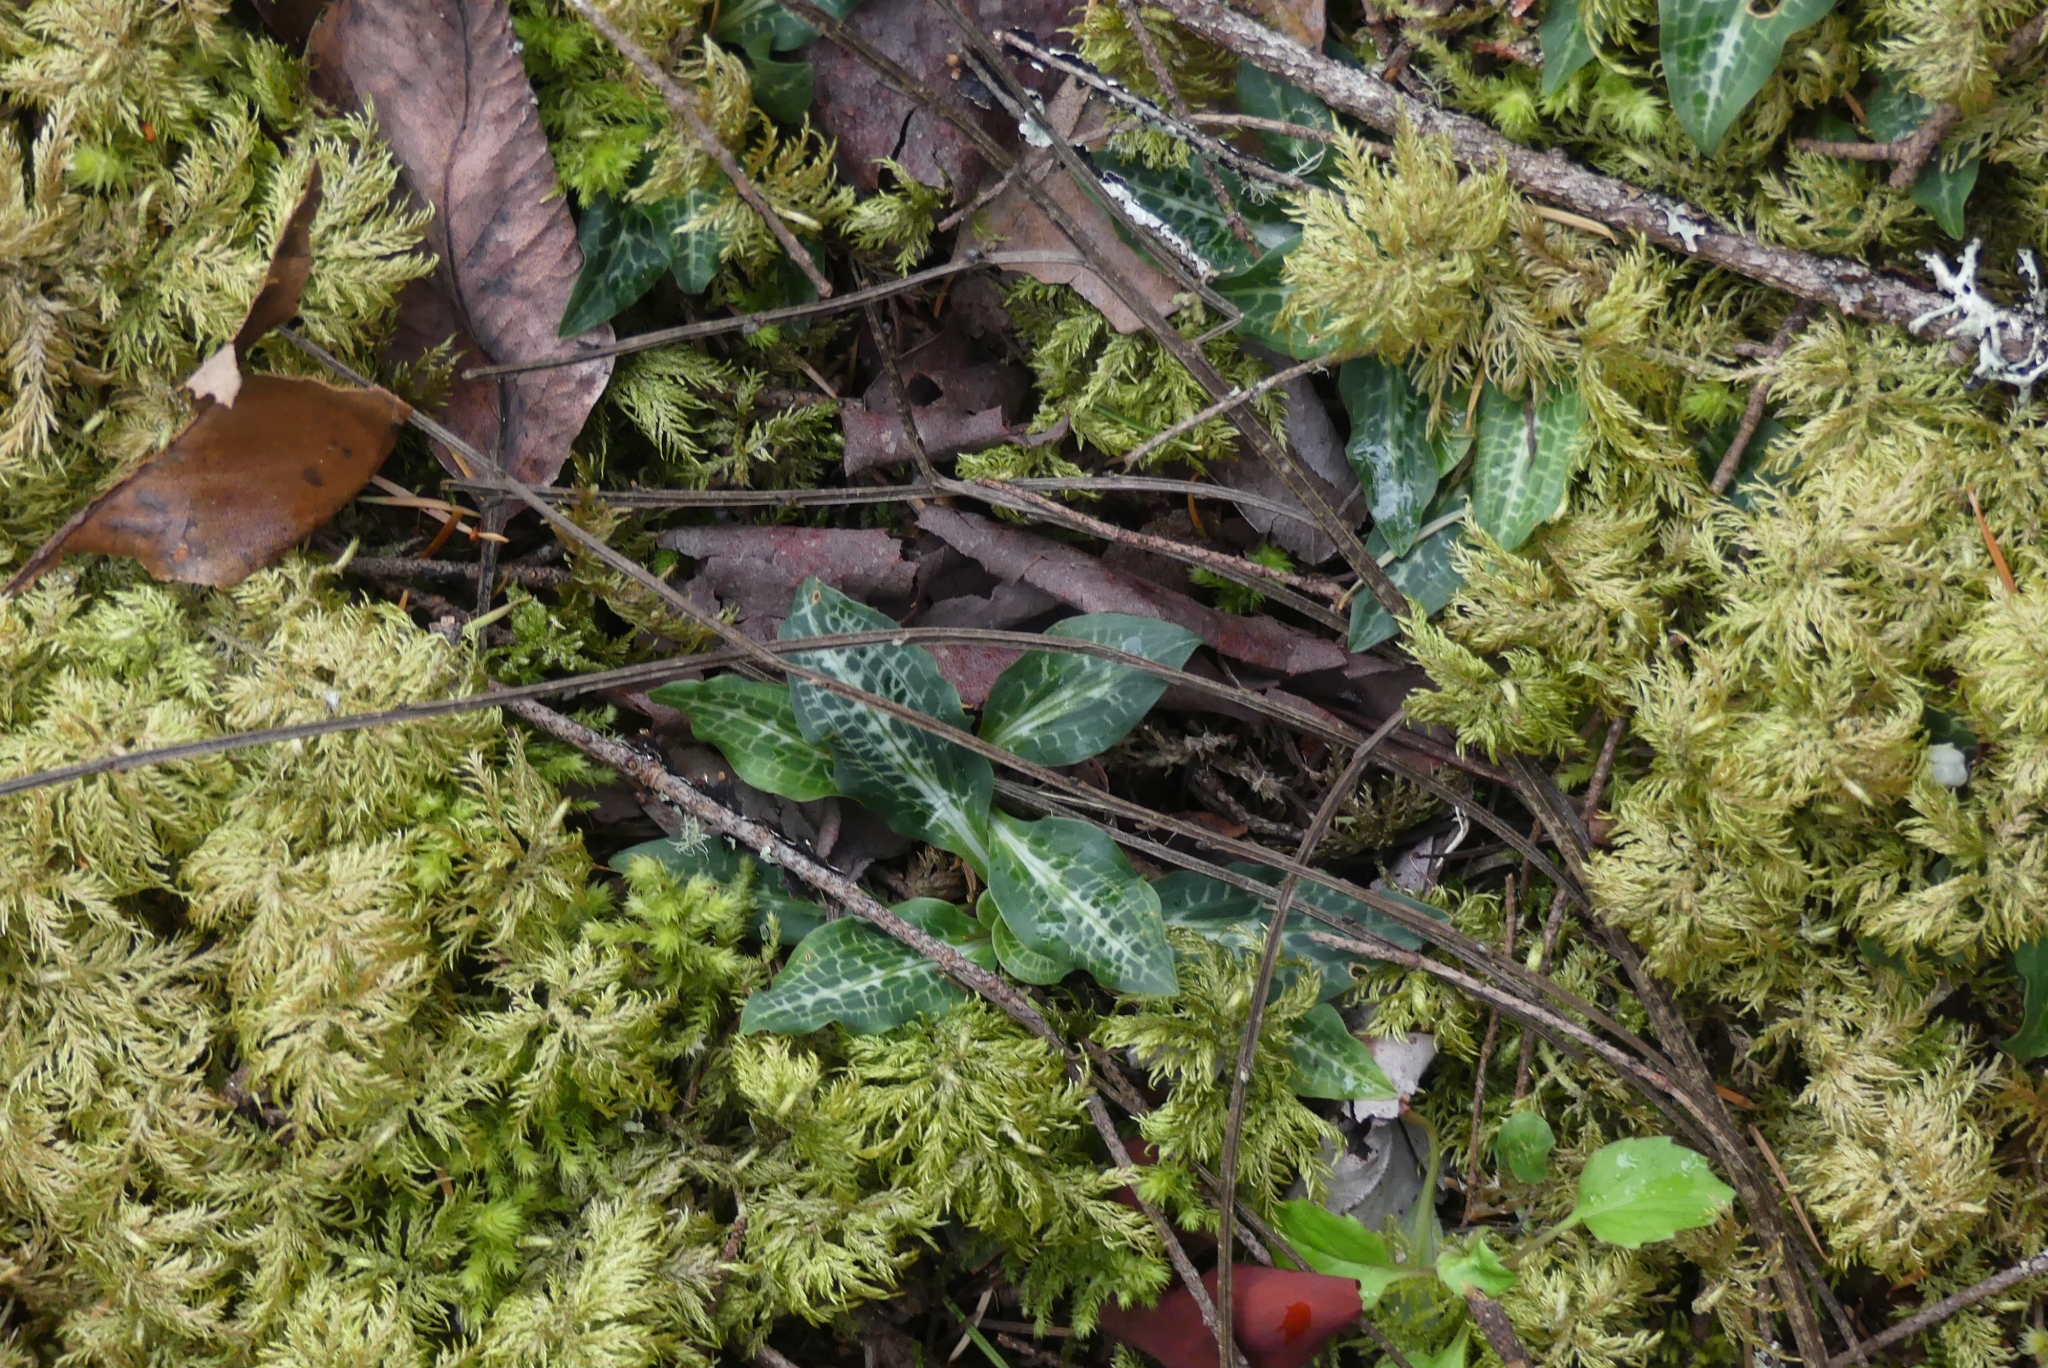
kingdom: Plantae
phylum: Tracheophyta
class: Liliopsida
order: Asparagales
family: Orchidaceae
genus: Goodyera
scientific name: Goodyera oblongifolia
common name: Giant rattlesnake-plantain
